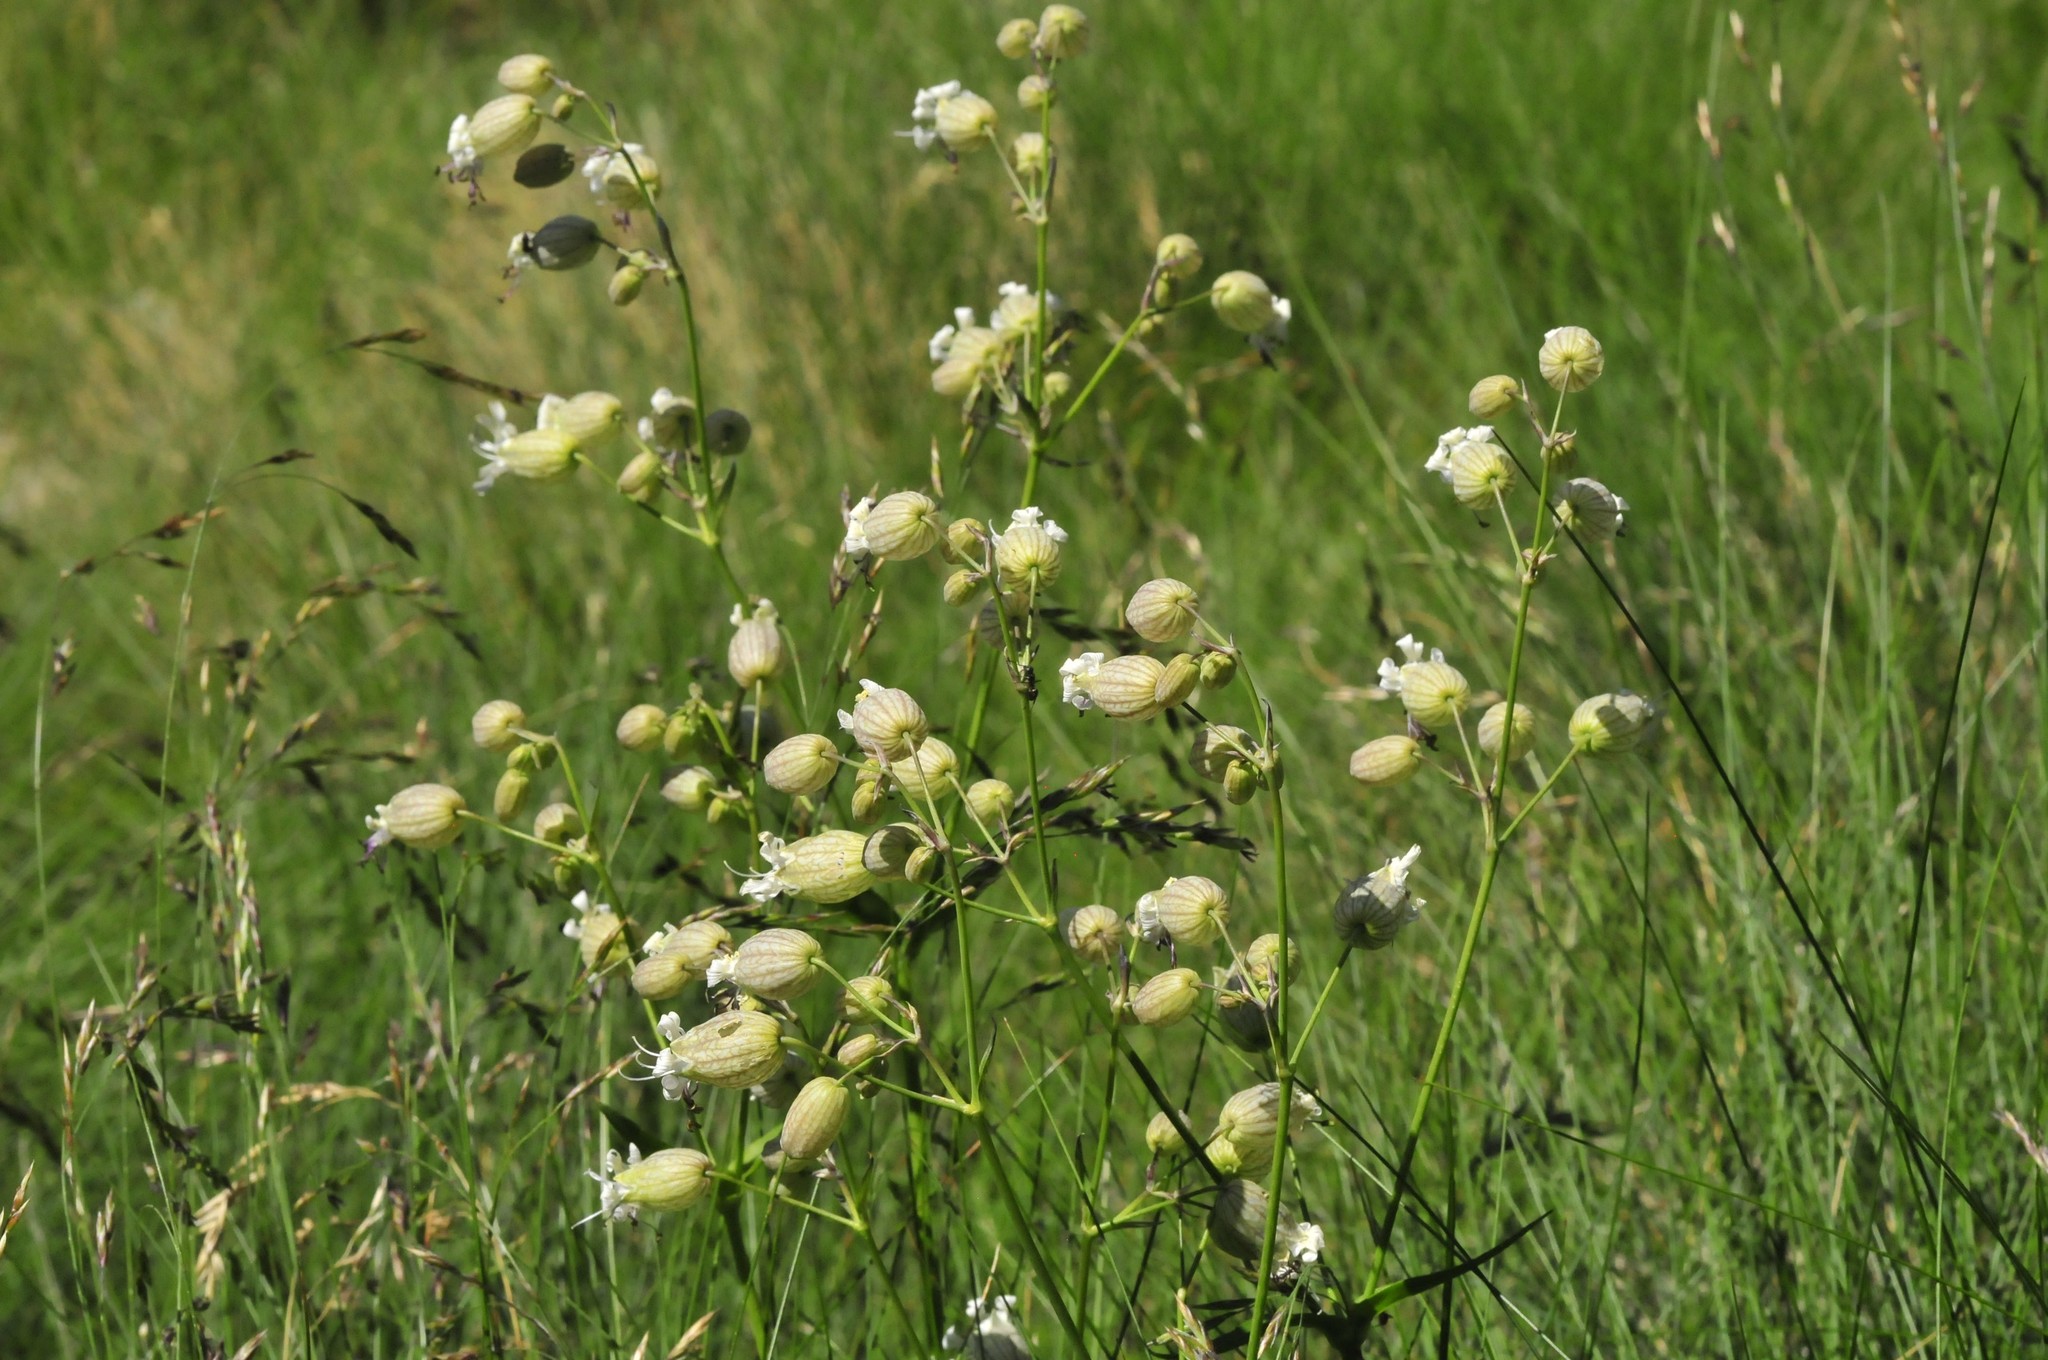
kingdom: Plantae
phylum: Tracheophyta
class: Magnoliopsida
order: Caryophyllales
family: Caryophyllaceae
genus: Silene
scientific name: Silene vulgaris
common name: Bladder campion
